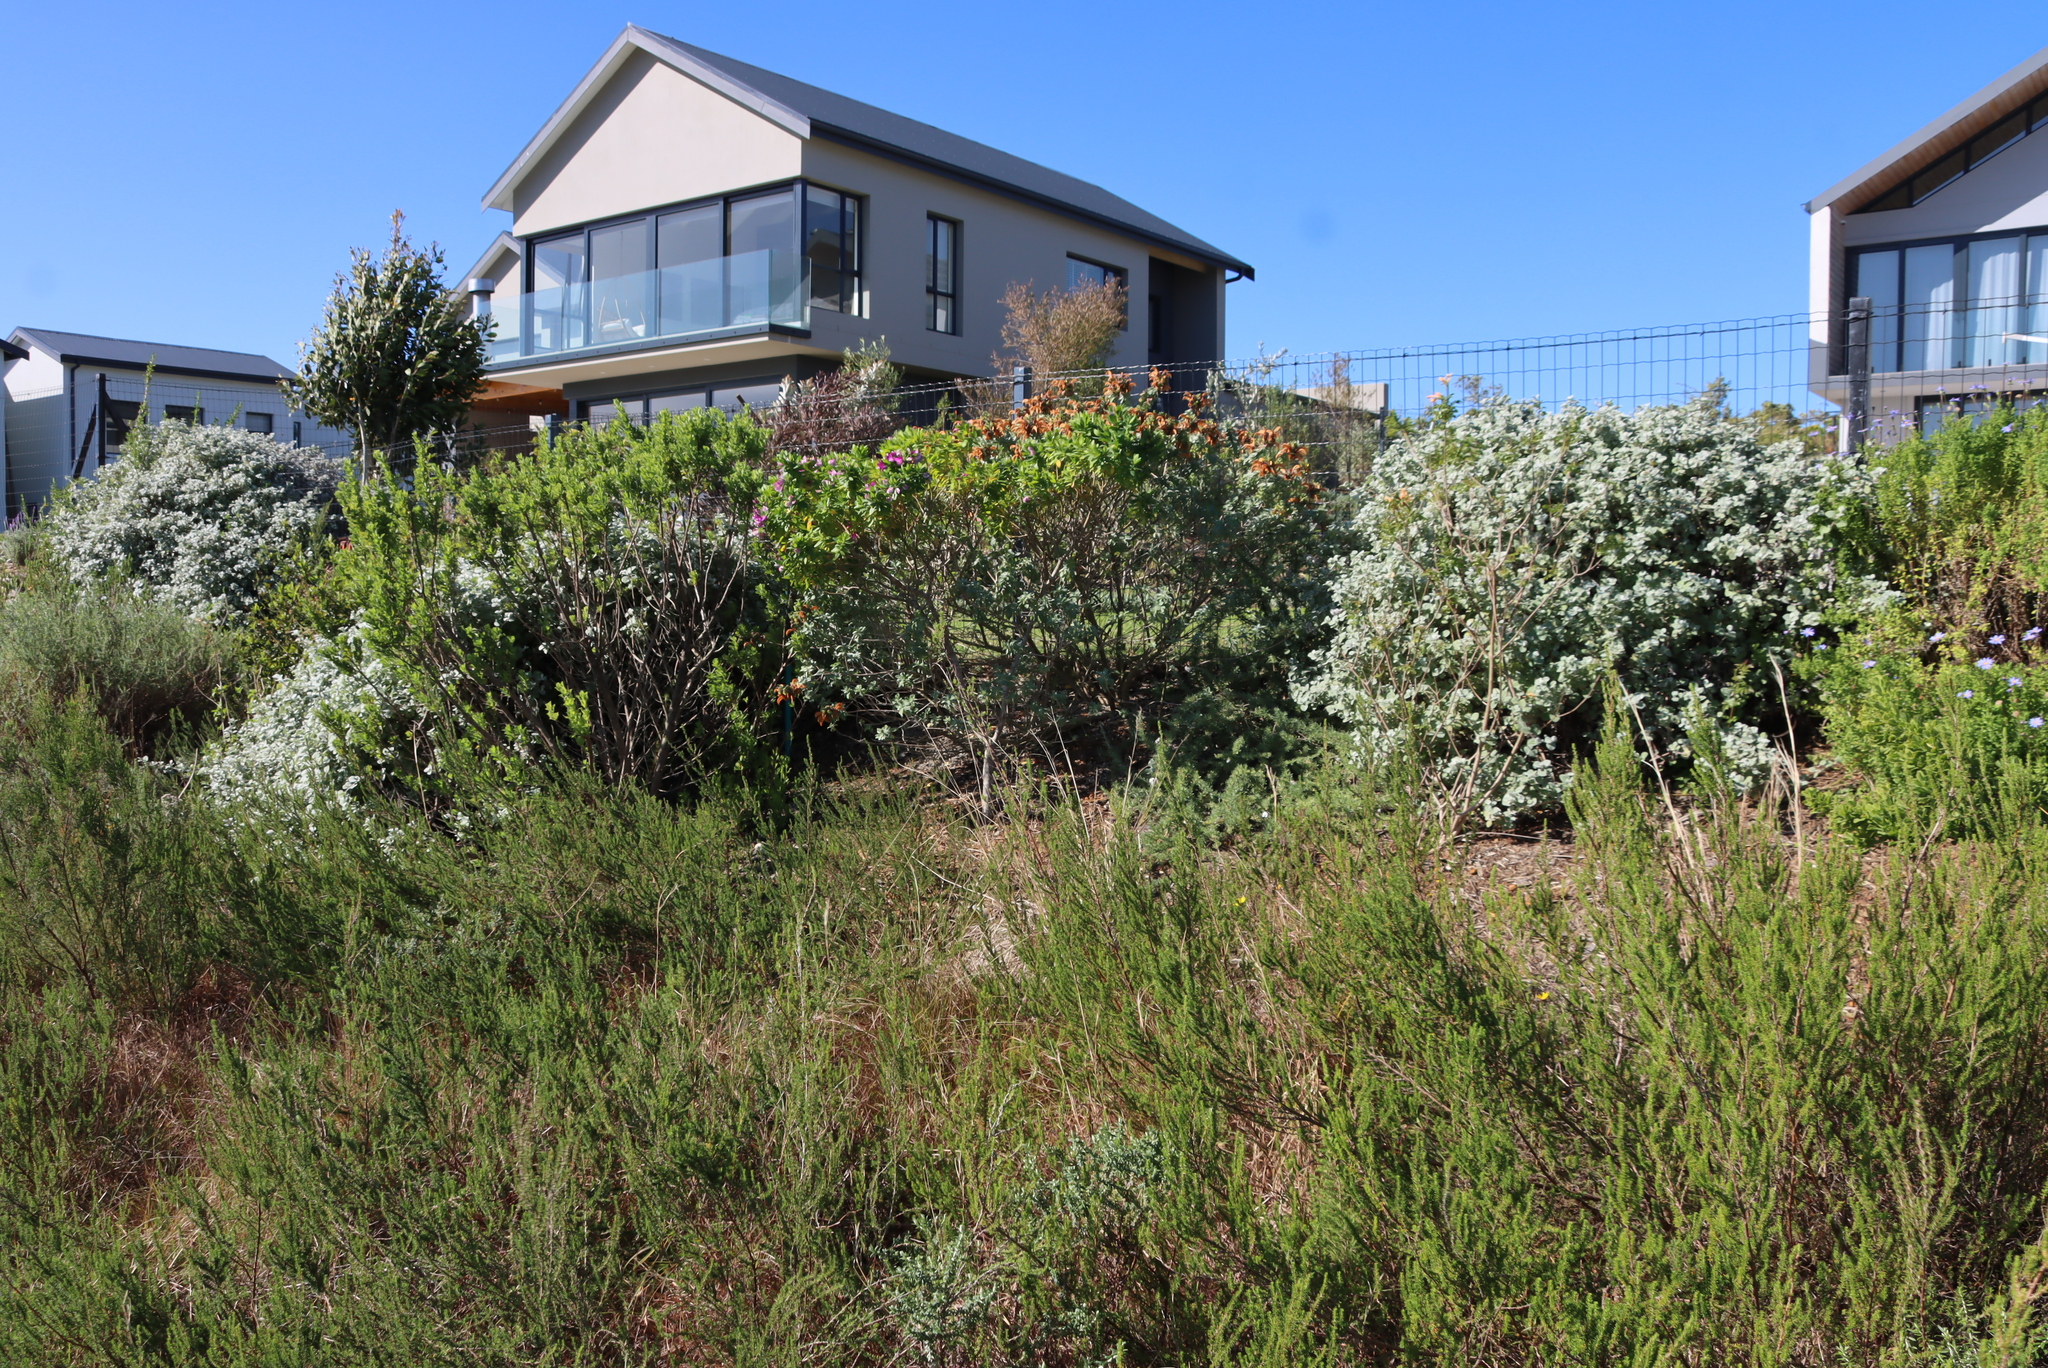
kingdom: Plantae
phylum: Tracheophyta
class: Magnoliopsida
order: Rosales
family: Rosaceae
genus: Cliffortia
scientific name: Cliffortia linearifolia
